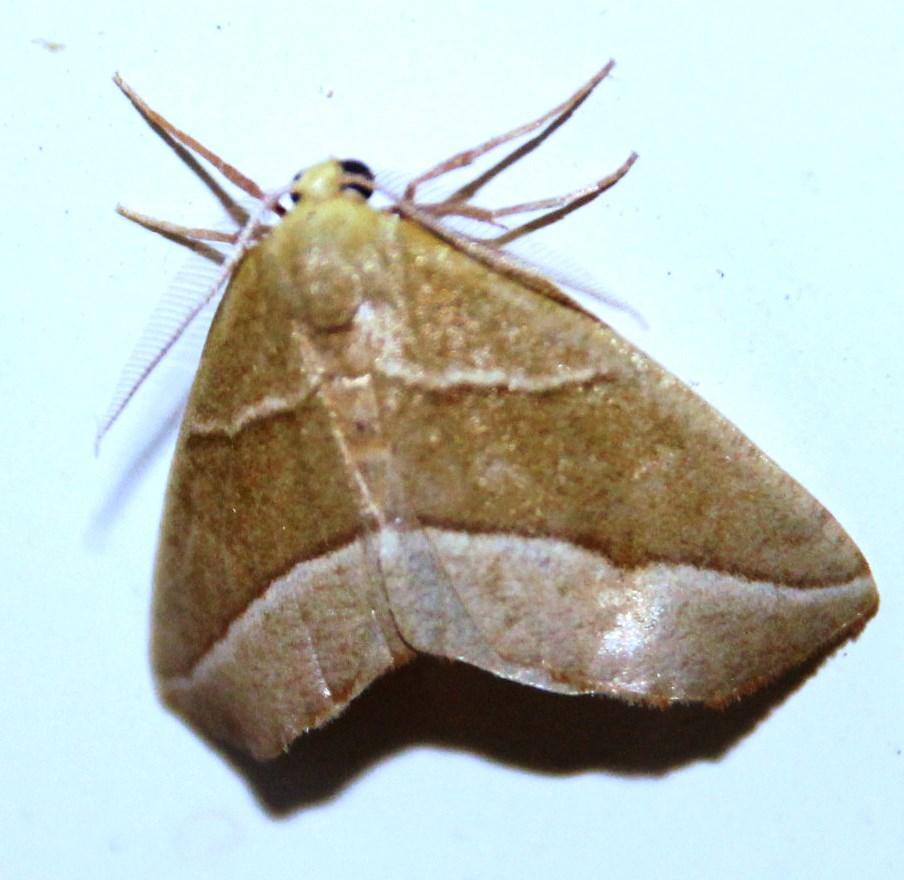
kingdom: Animalia
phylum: Arthropoda
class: Insecta
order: Lepidoptera
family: Geometridae
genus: Sicyodes
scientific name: Sicyodes costipicta
